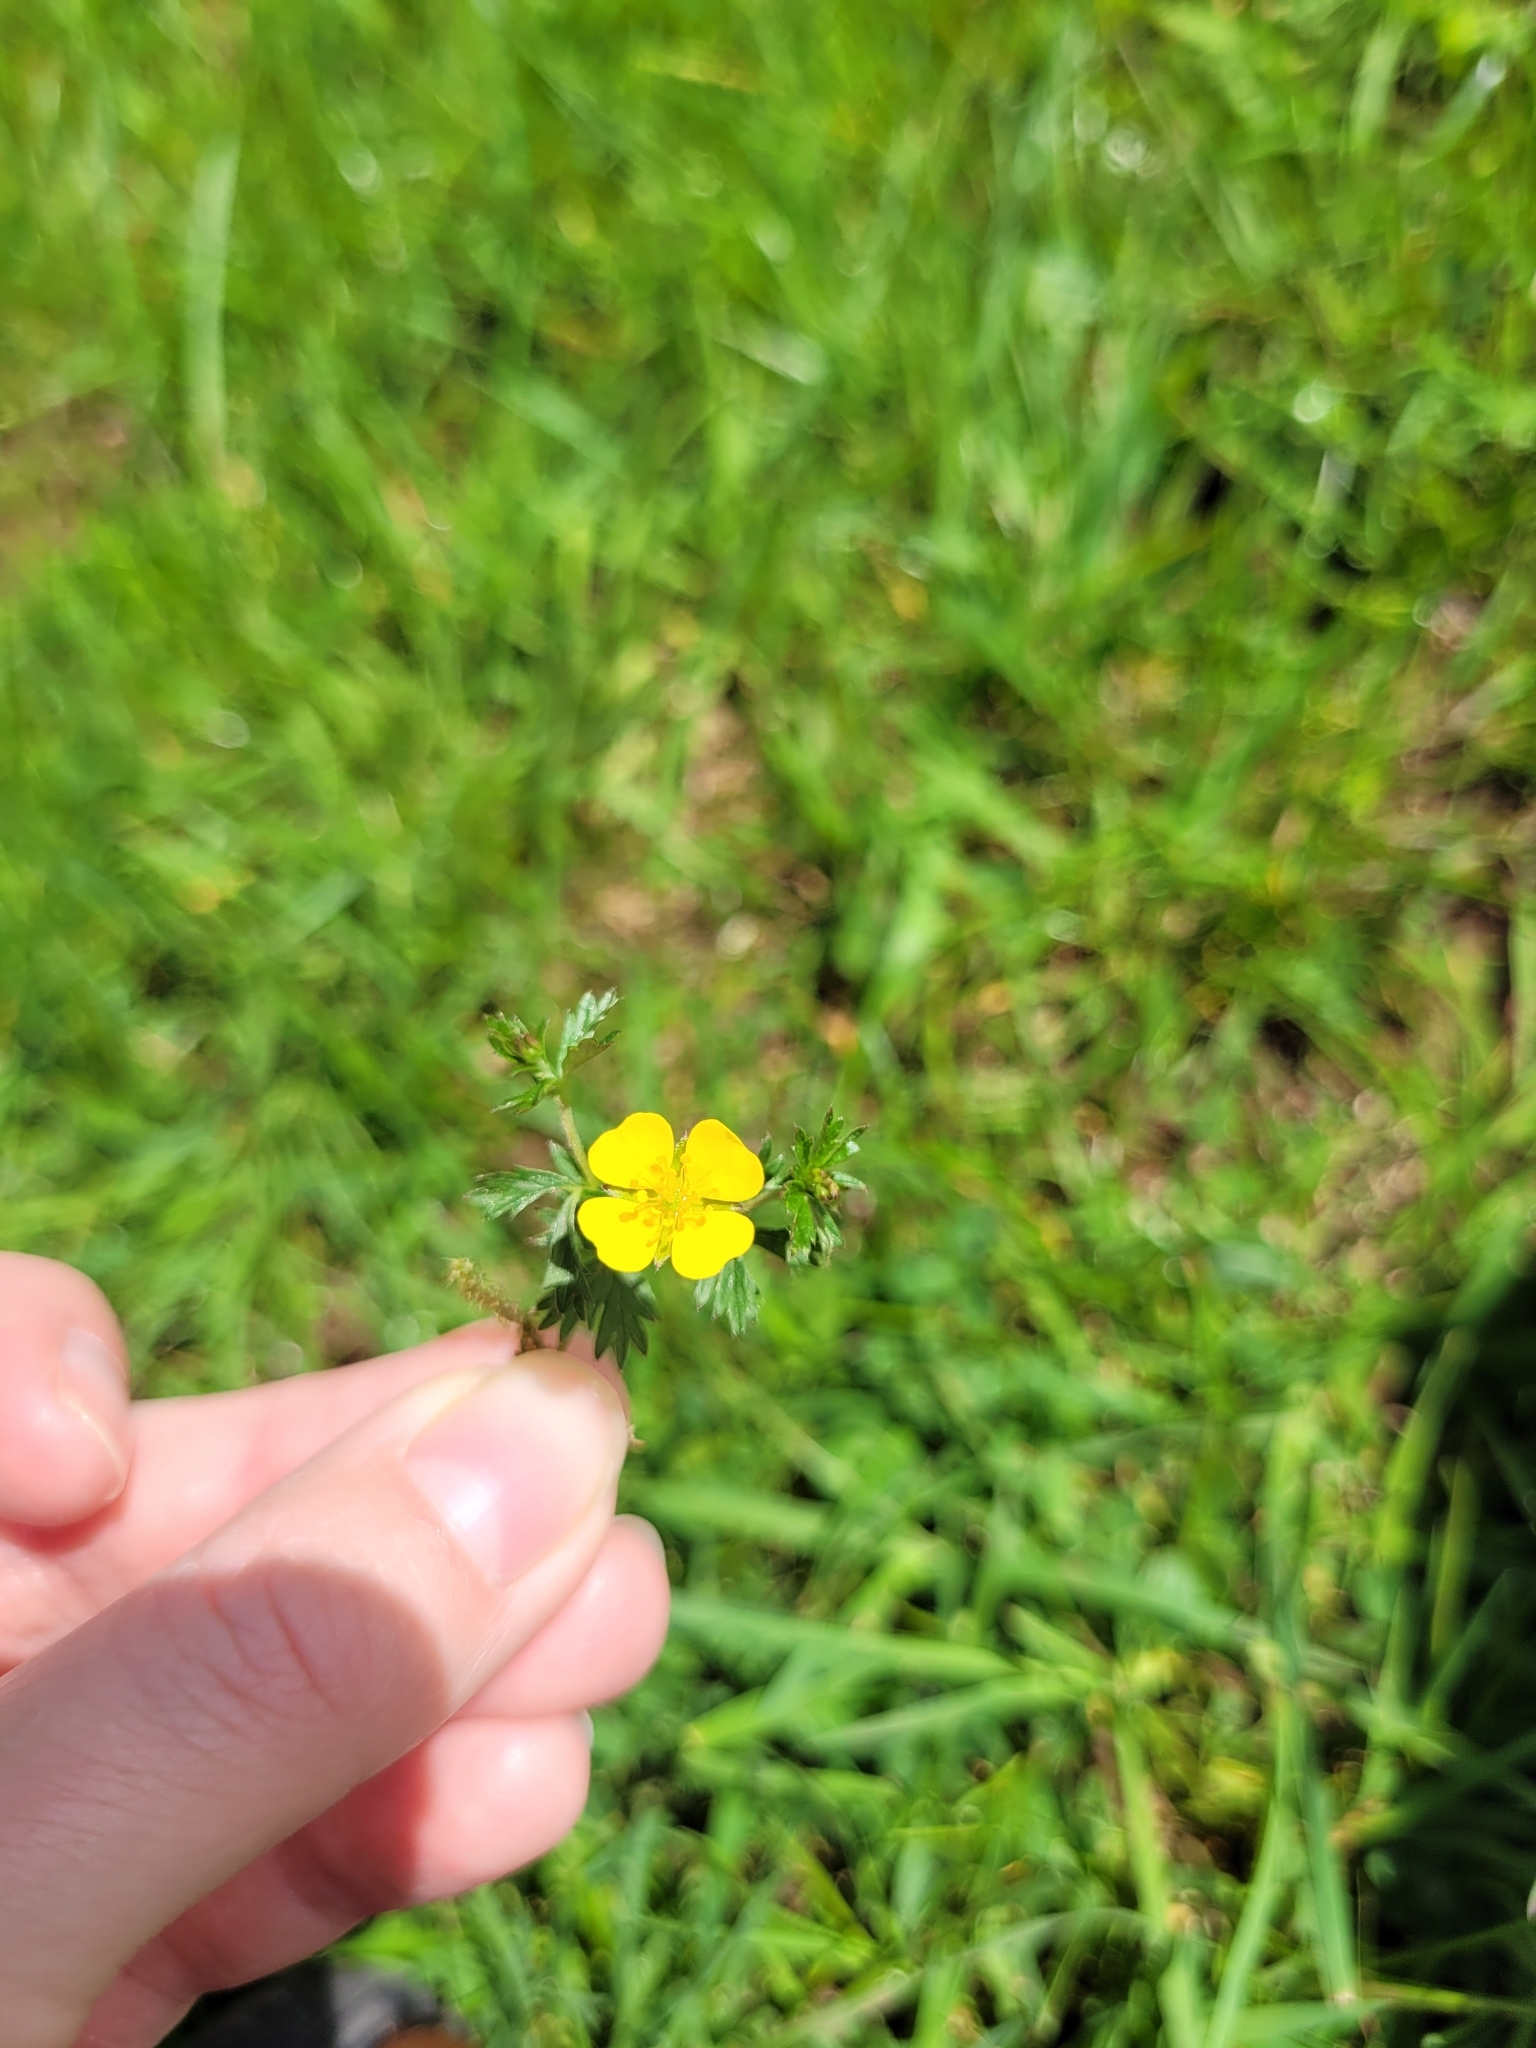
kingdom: Plantae
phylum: Tracheophyta
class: Magnoliopsida
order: Rosales
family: Rosaceae
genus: Potentilla
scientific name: Potentilla erecta
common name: Tormentil
